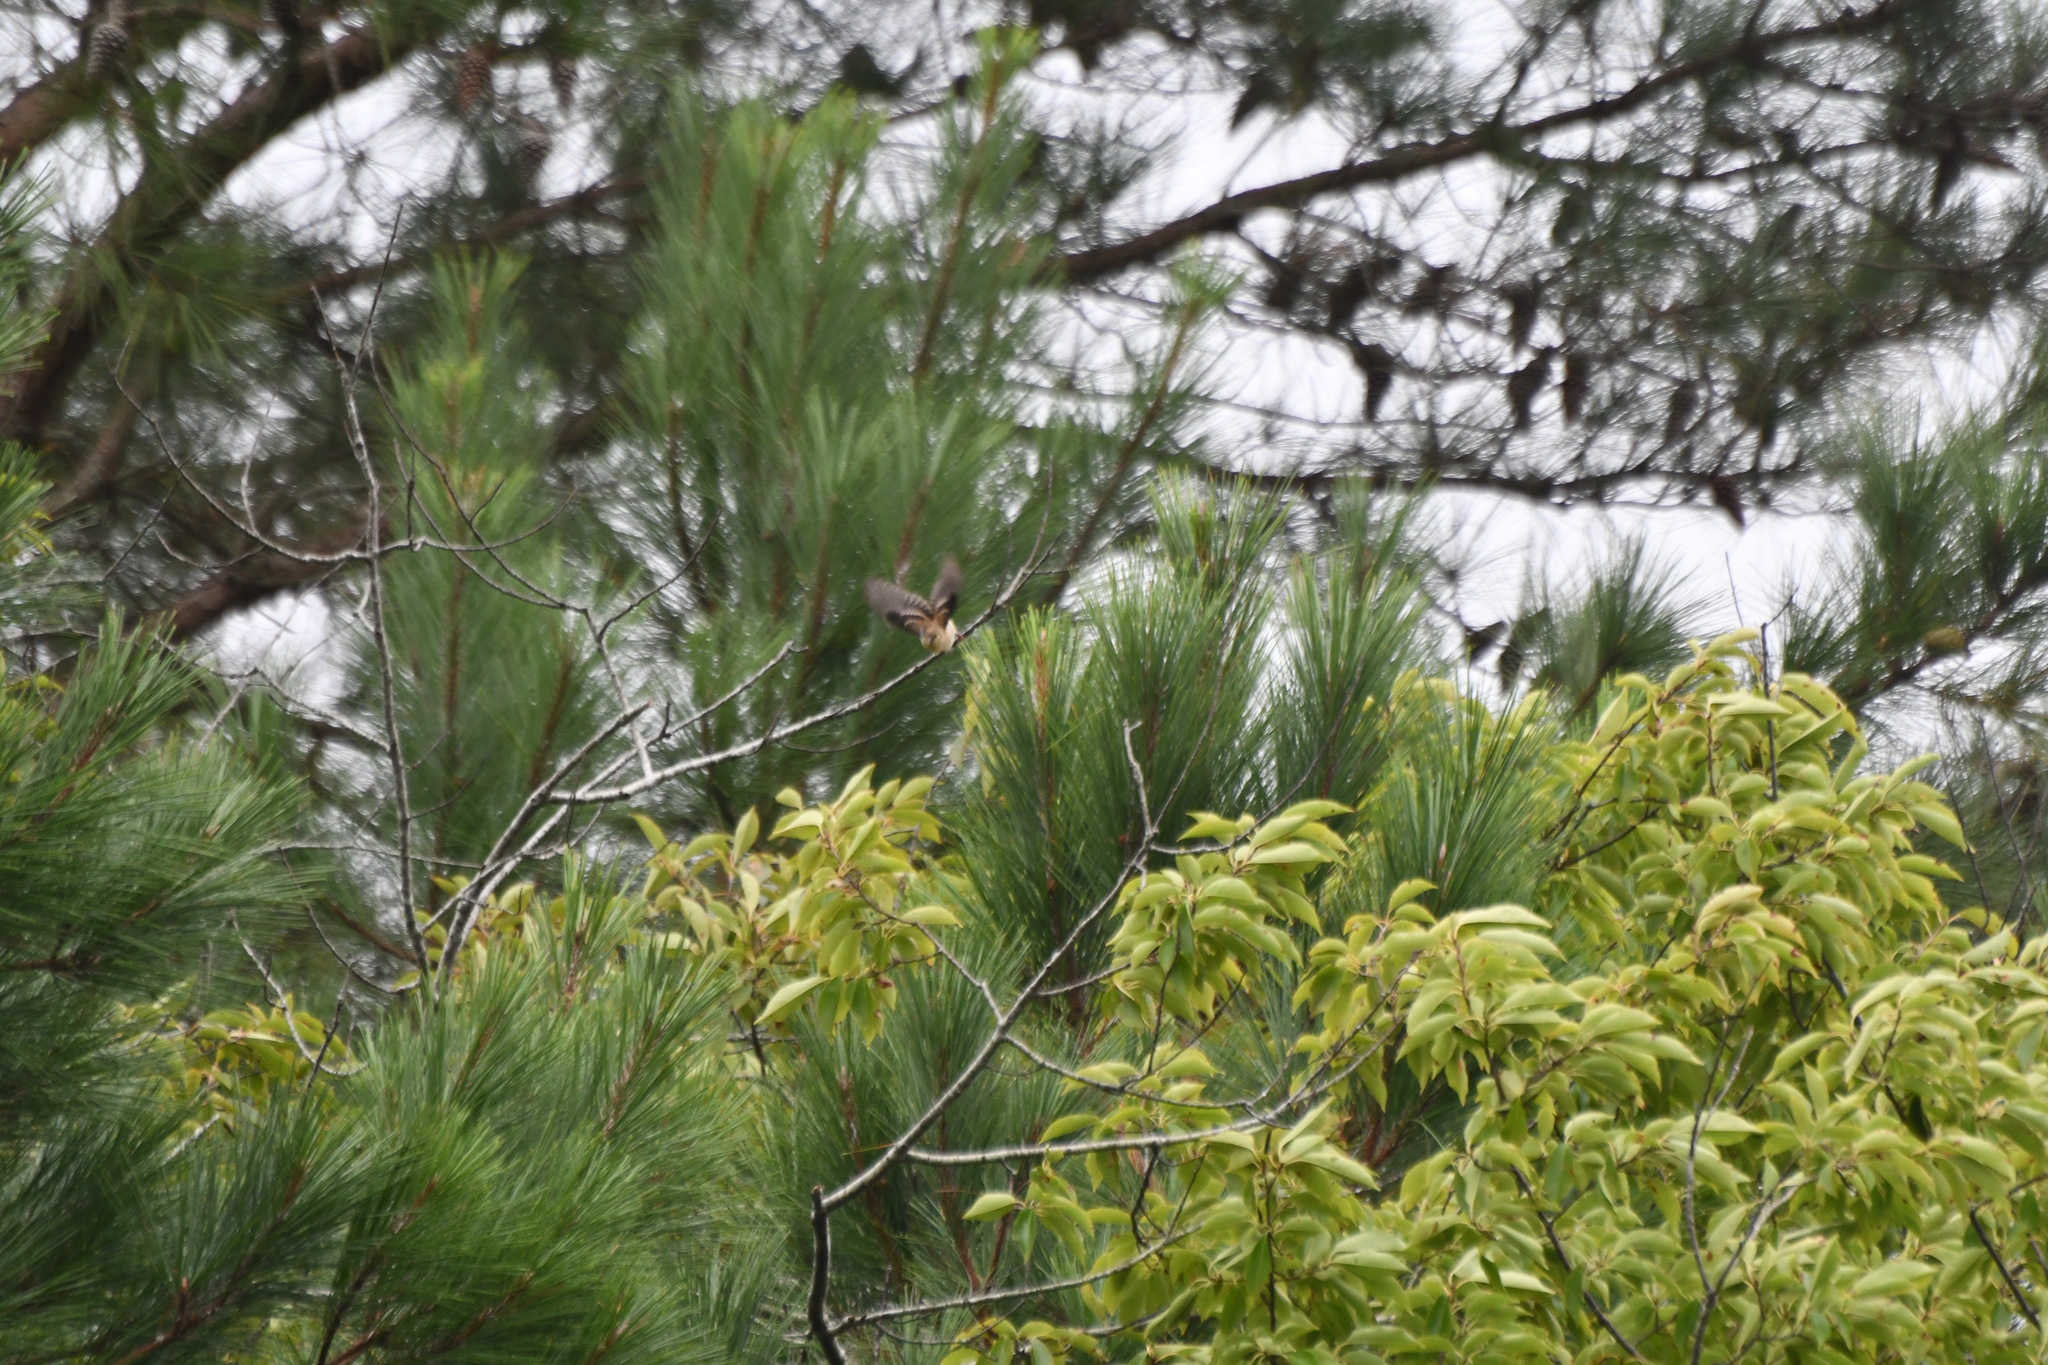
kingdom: Animalia
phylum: Chordata
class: Aves
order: Passeriformes
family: Fringillidae
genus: Spinus
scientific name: Spinus tristis
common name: American goldfinch
